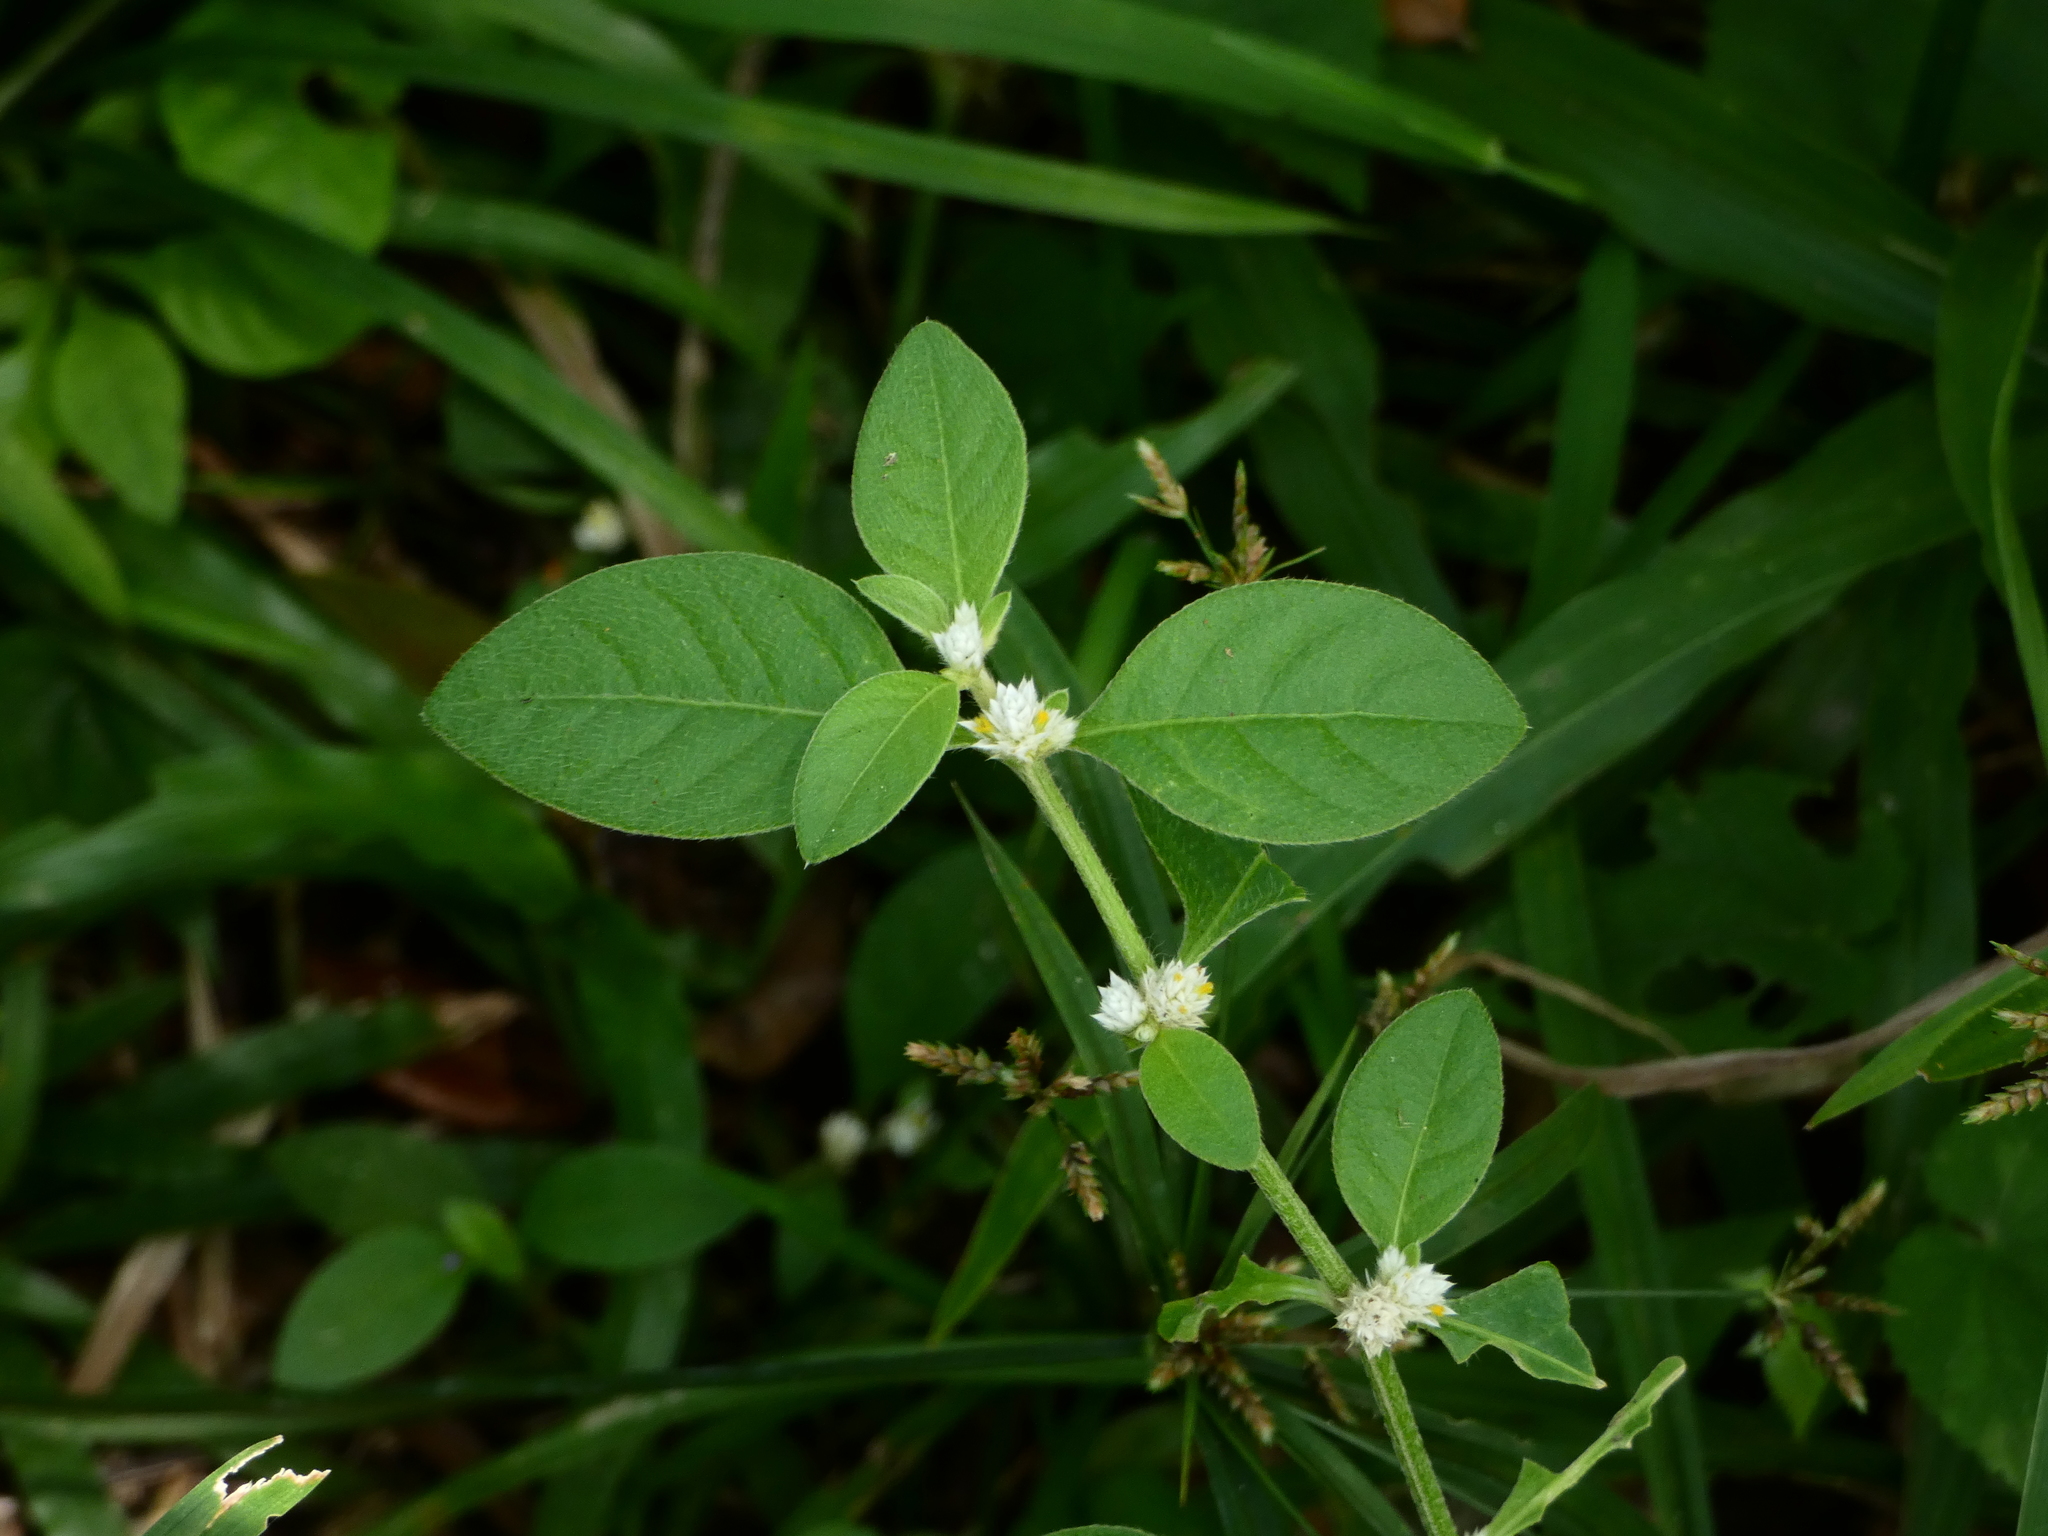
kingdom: Plantae
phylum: Tracheophyta
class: Magnoliopsida
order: Caryophyllales
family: Amaranthaceae
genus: Alternanthera
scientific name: Alternanthera ficoidea
